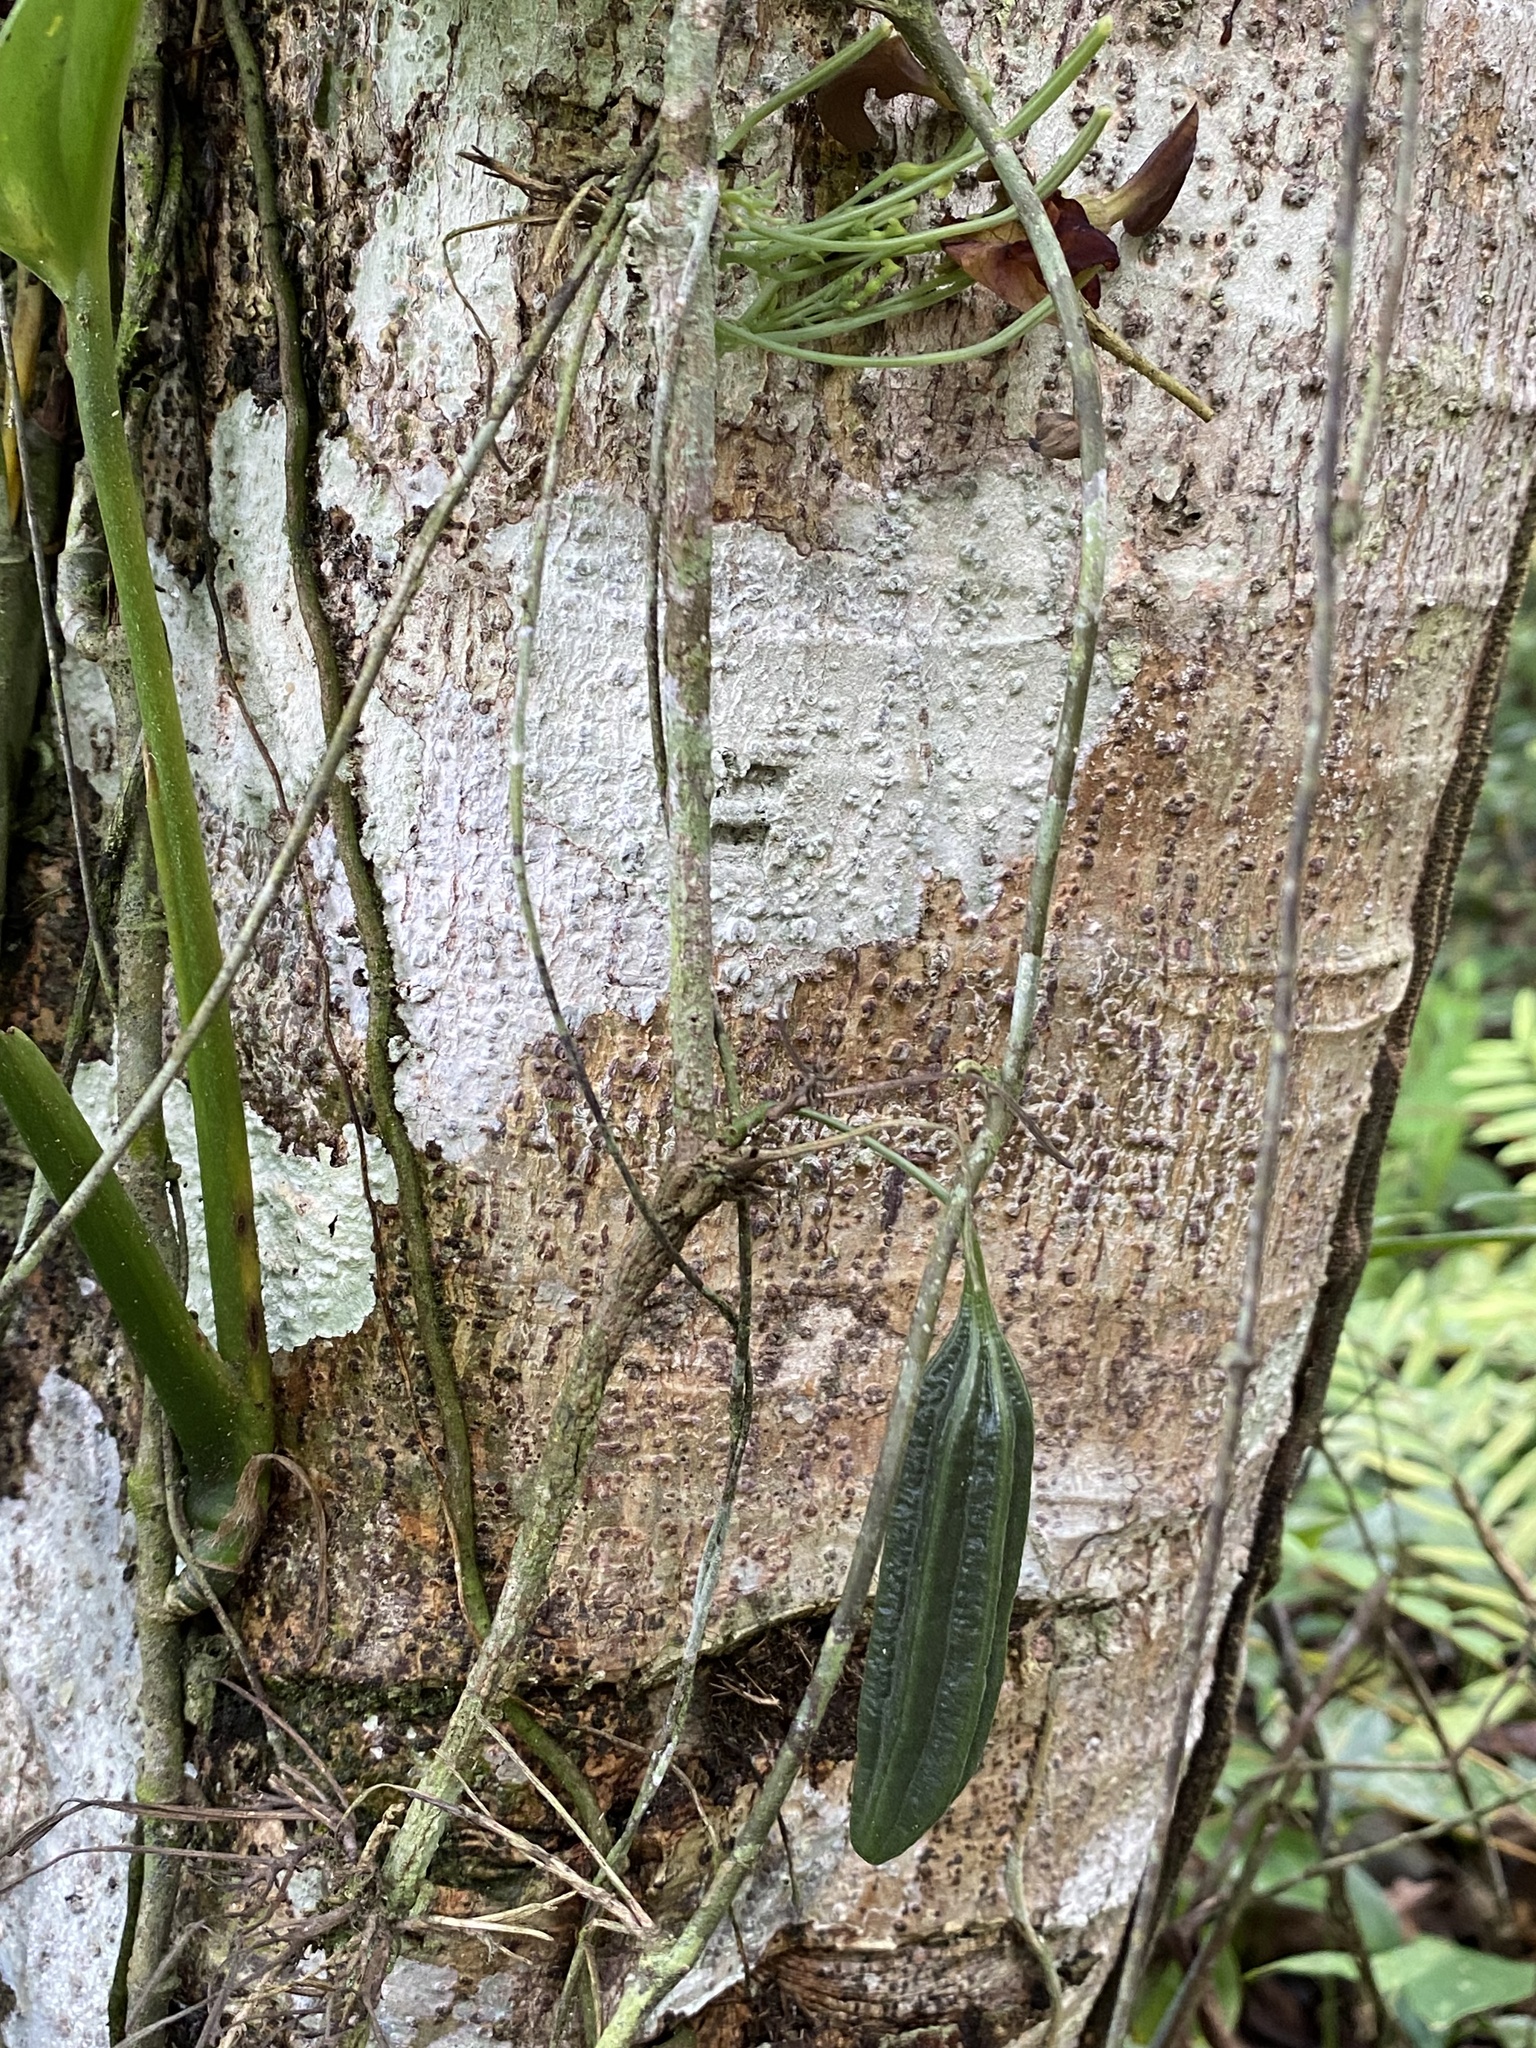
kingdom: Plantae
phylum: Tracheophyta
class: Magnoliopsida
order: Piperales
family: Aristolochiaceae
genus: Aristolochia
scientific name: Aristolochia iquitensis
